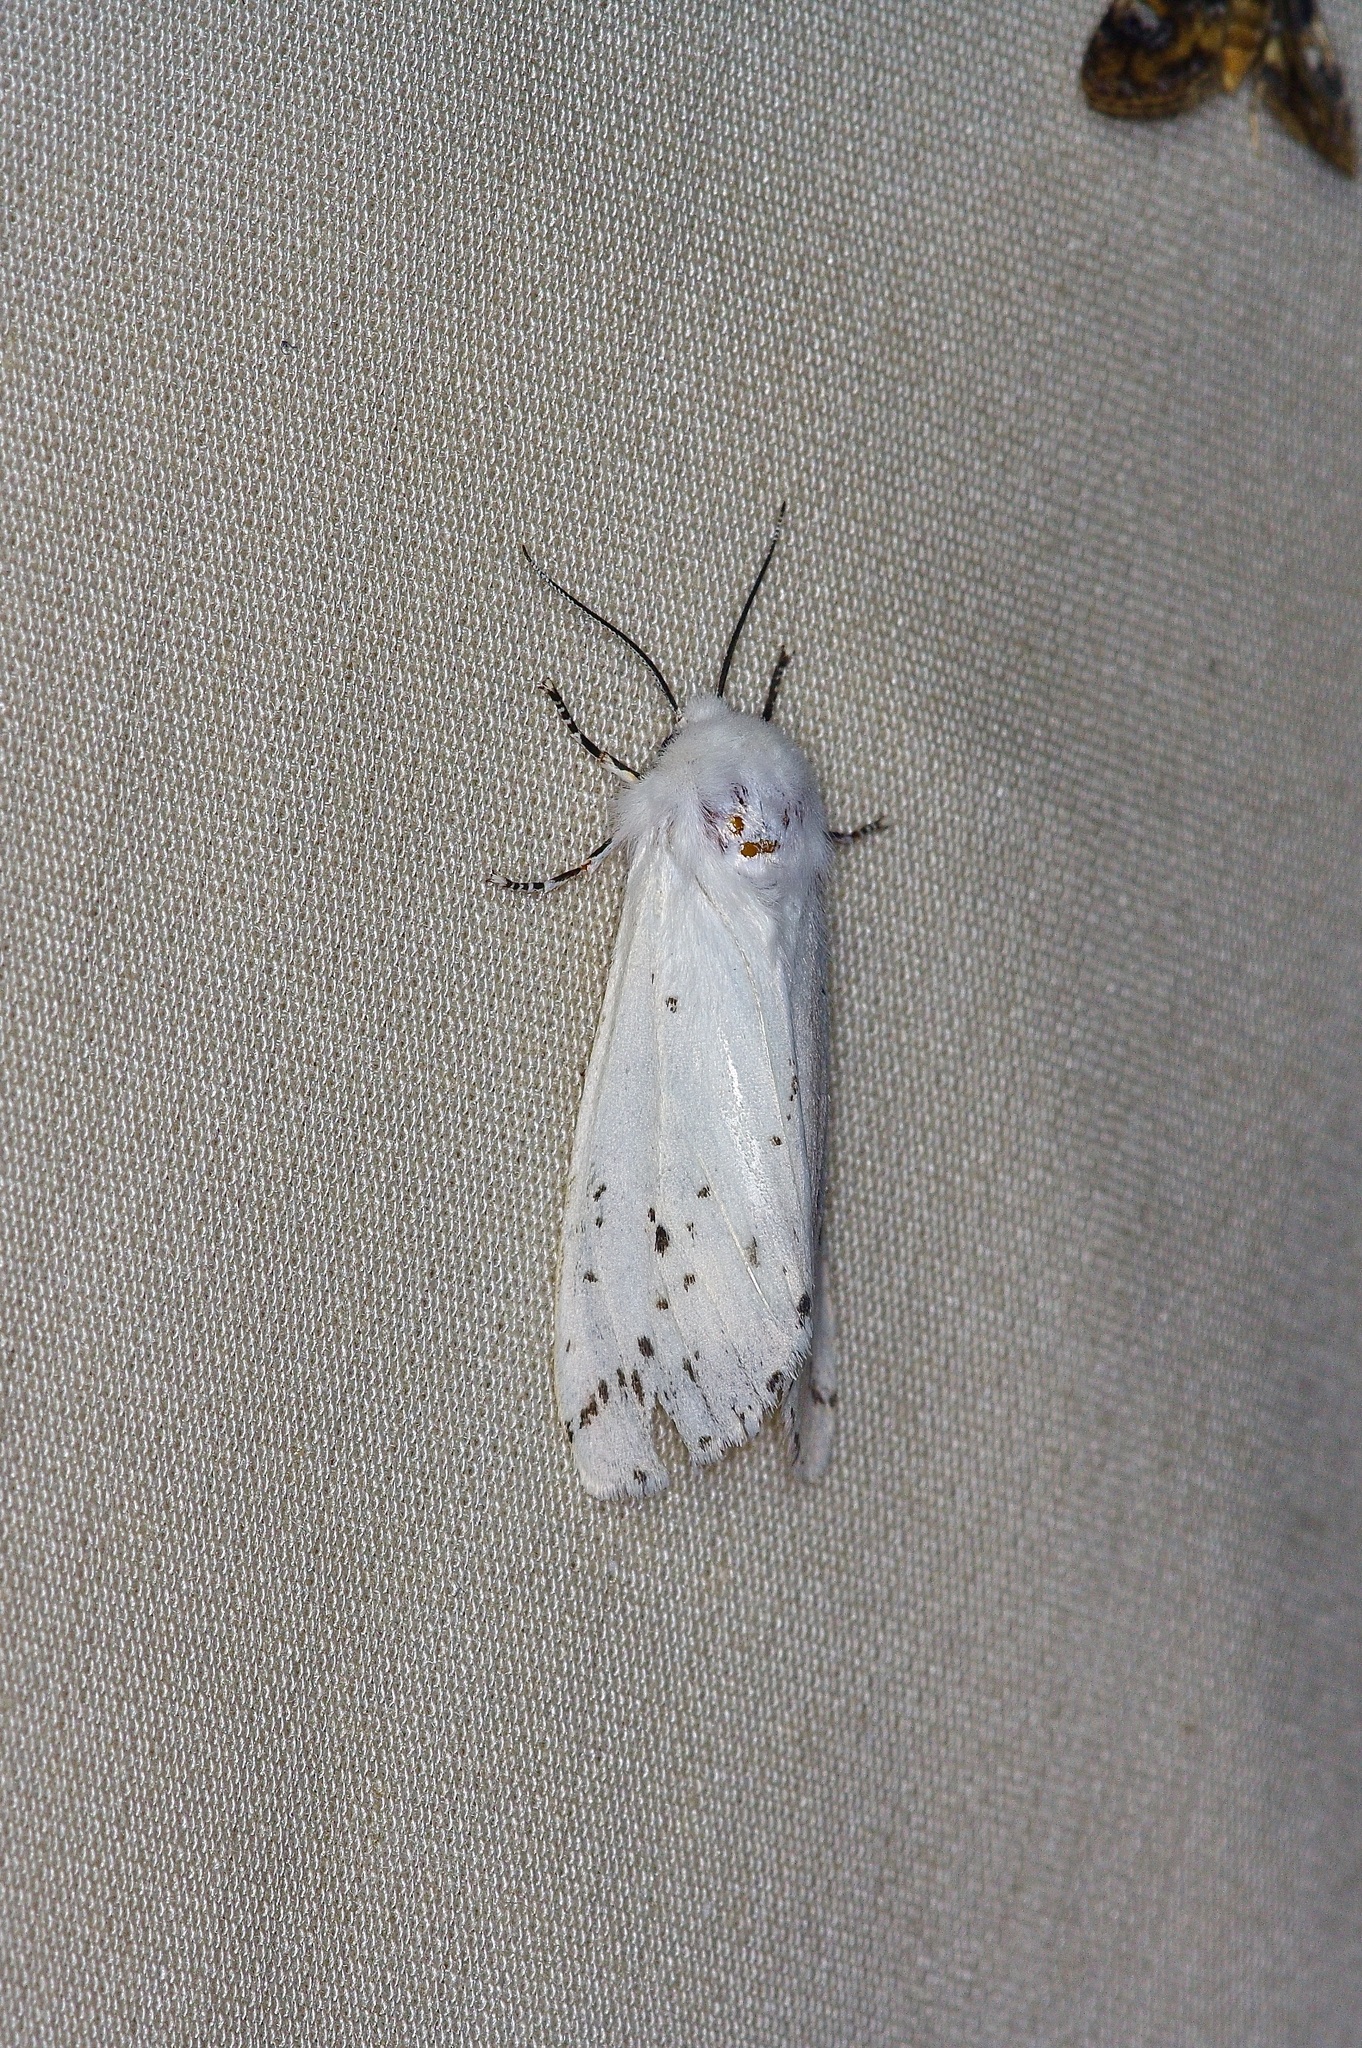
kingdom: Animalia
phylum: Arthropoda
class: Insecta
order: Lepidoptera
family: Erebidae
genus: Hyphantria
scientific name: Hyphantria cunea
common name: American white moth
